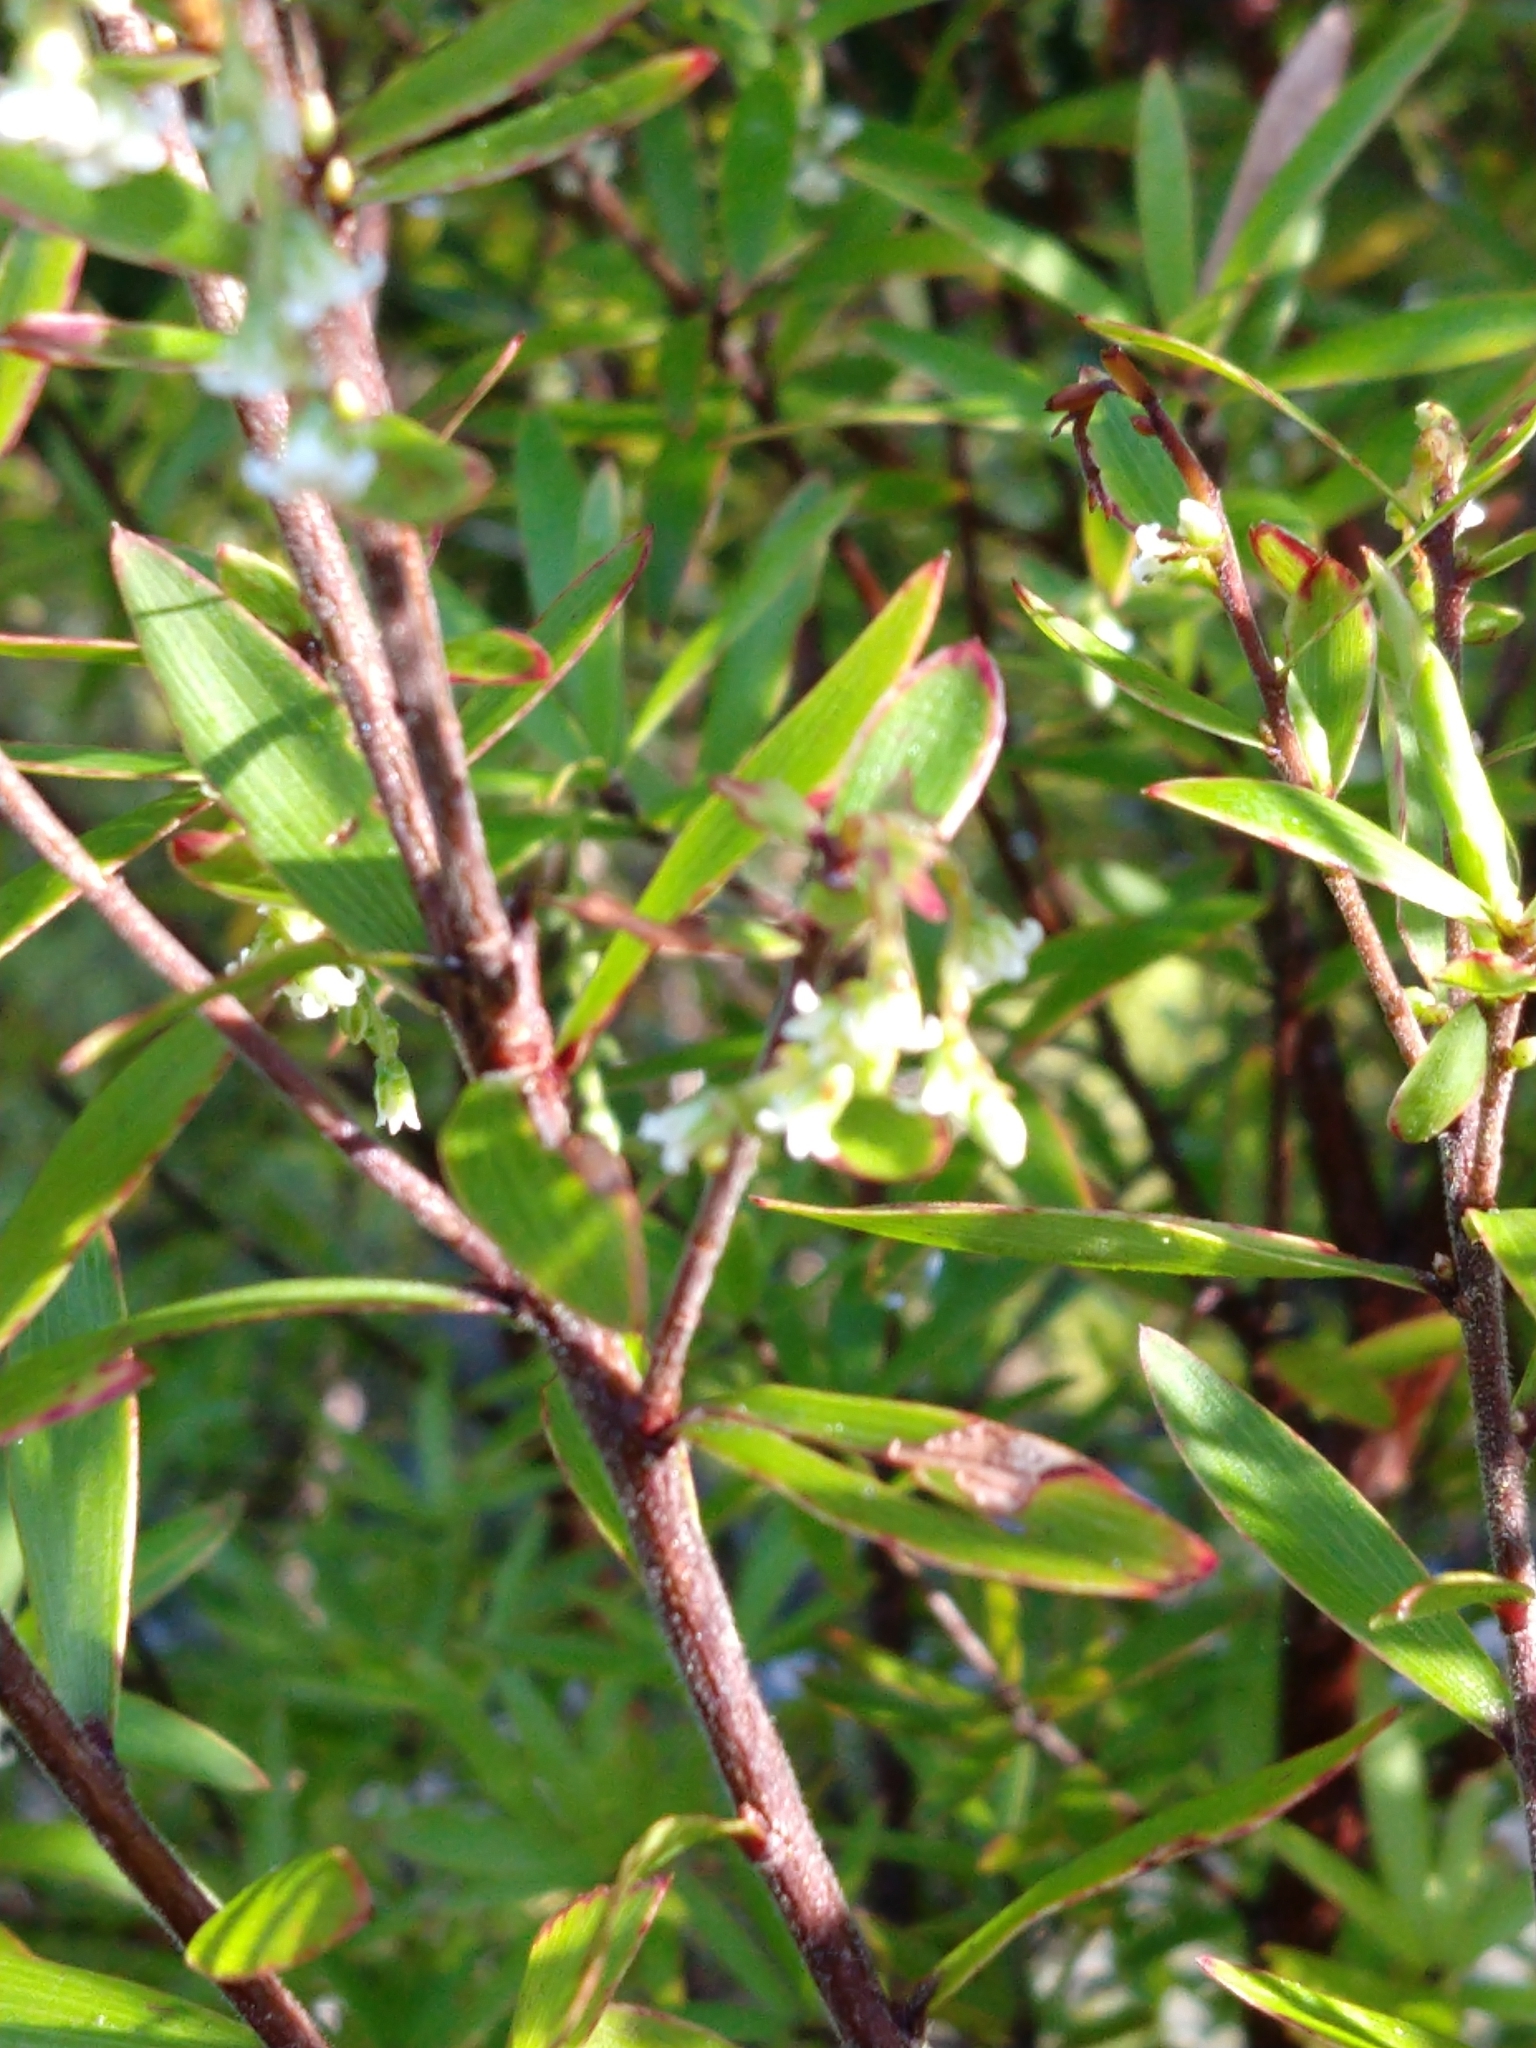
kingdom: Plantae
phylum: Tracheophyta
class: Magnoliopsida
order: Ericales
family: Ericaceae
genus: Leucopogon
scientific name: Leucopogon fasciculatus
